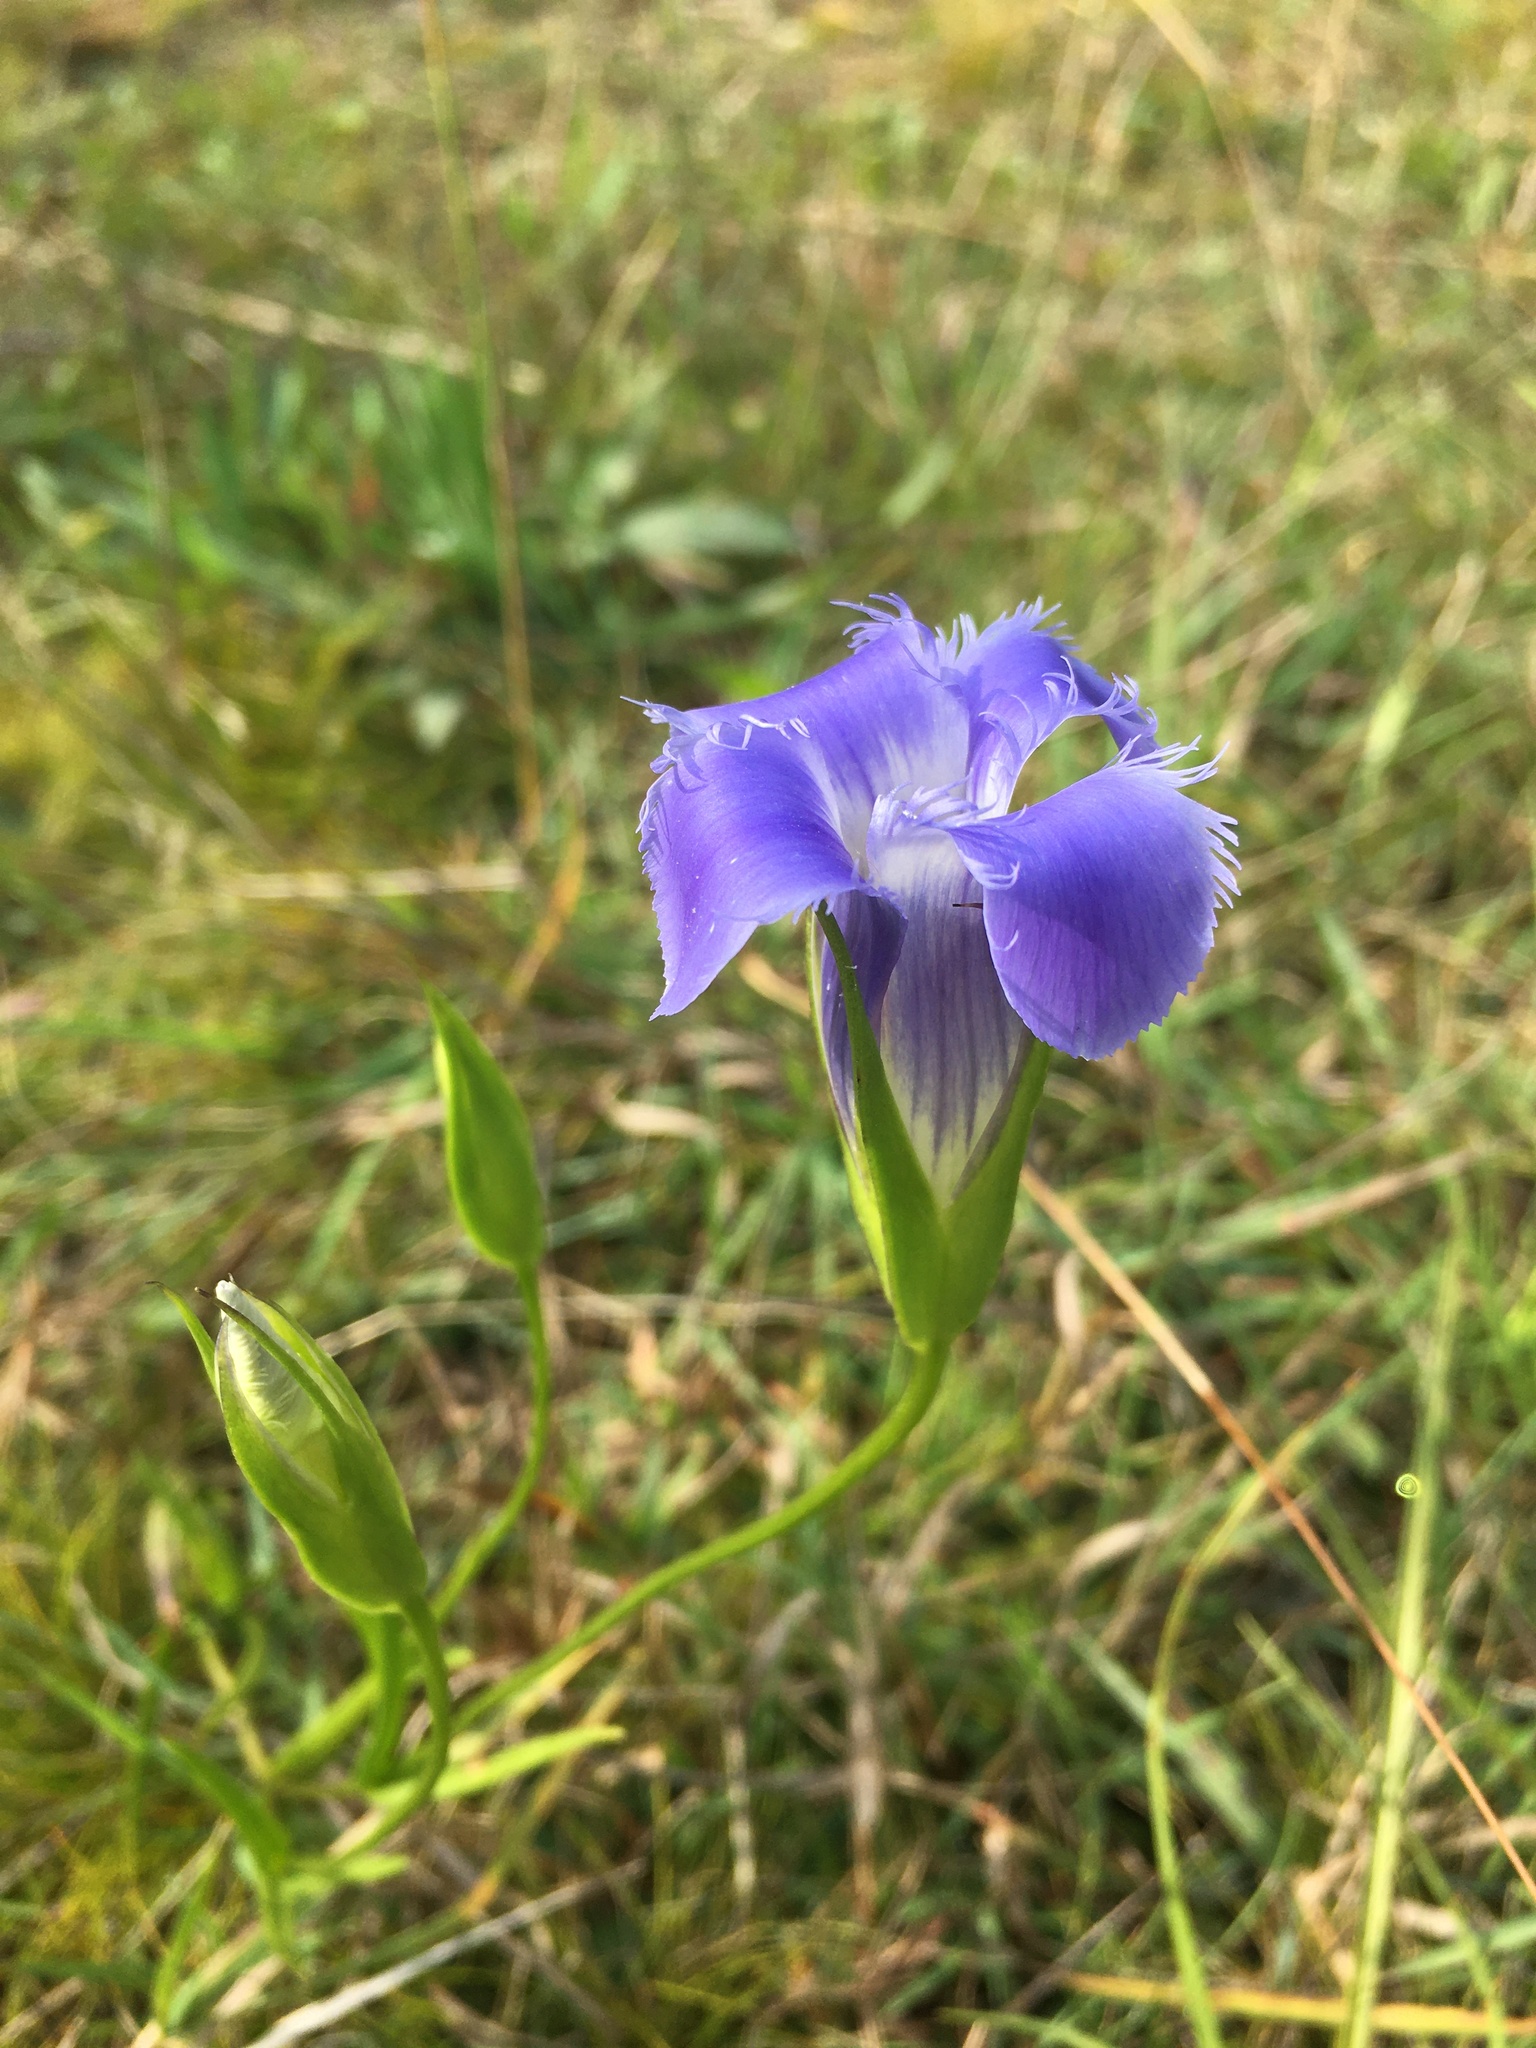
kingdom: Plantae
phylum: Tracheophyta
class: Magnoliopsida
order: Gentianales
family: Gentianaceae
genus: Gentianopsis
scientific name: Gentianopsis virgata
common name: Lesser fringed-gentian
